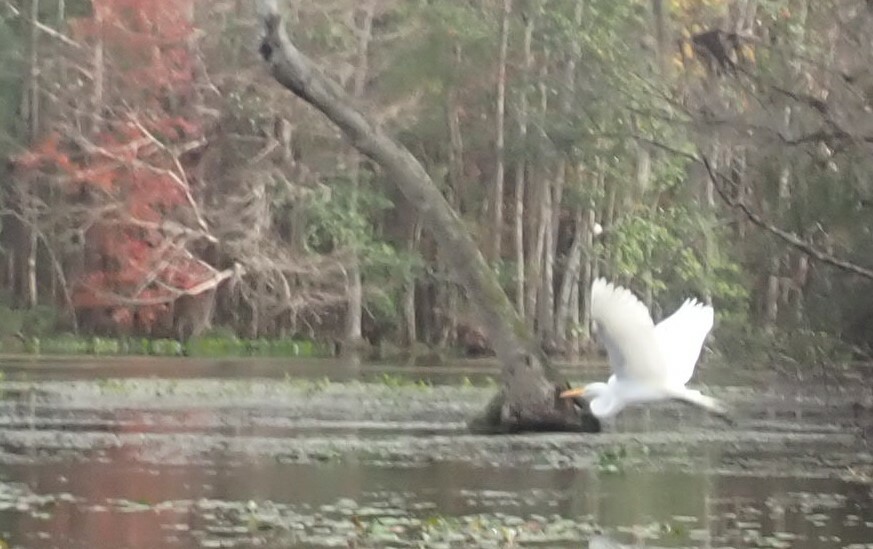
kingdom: Animalia
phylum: Chordata
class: Aves
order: Pelecaniformes
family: Ardeidae
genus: Ardea
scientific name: Ardea alba
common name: Great egret
